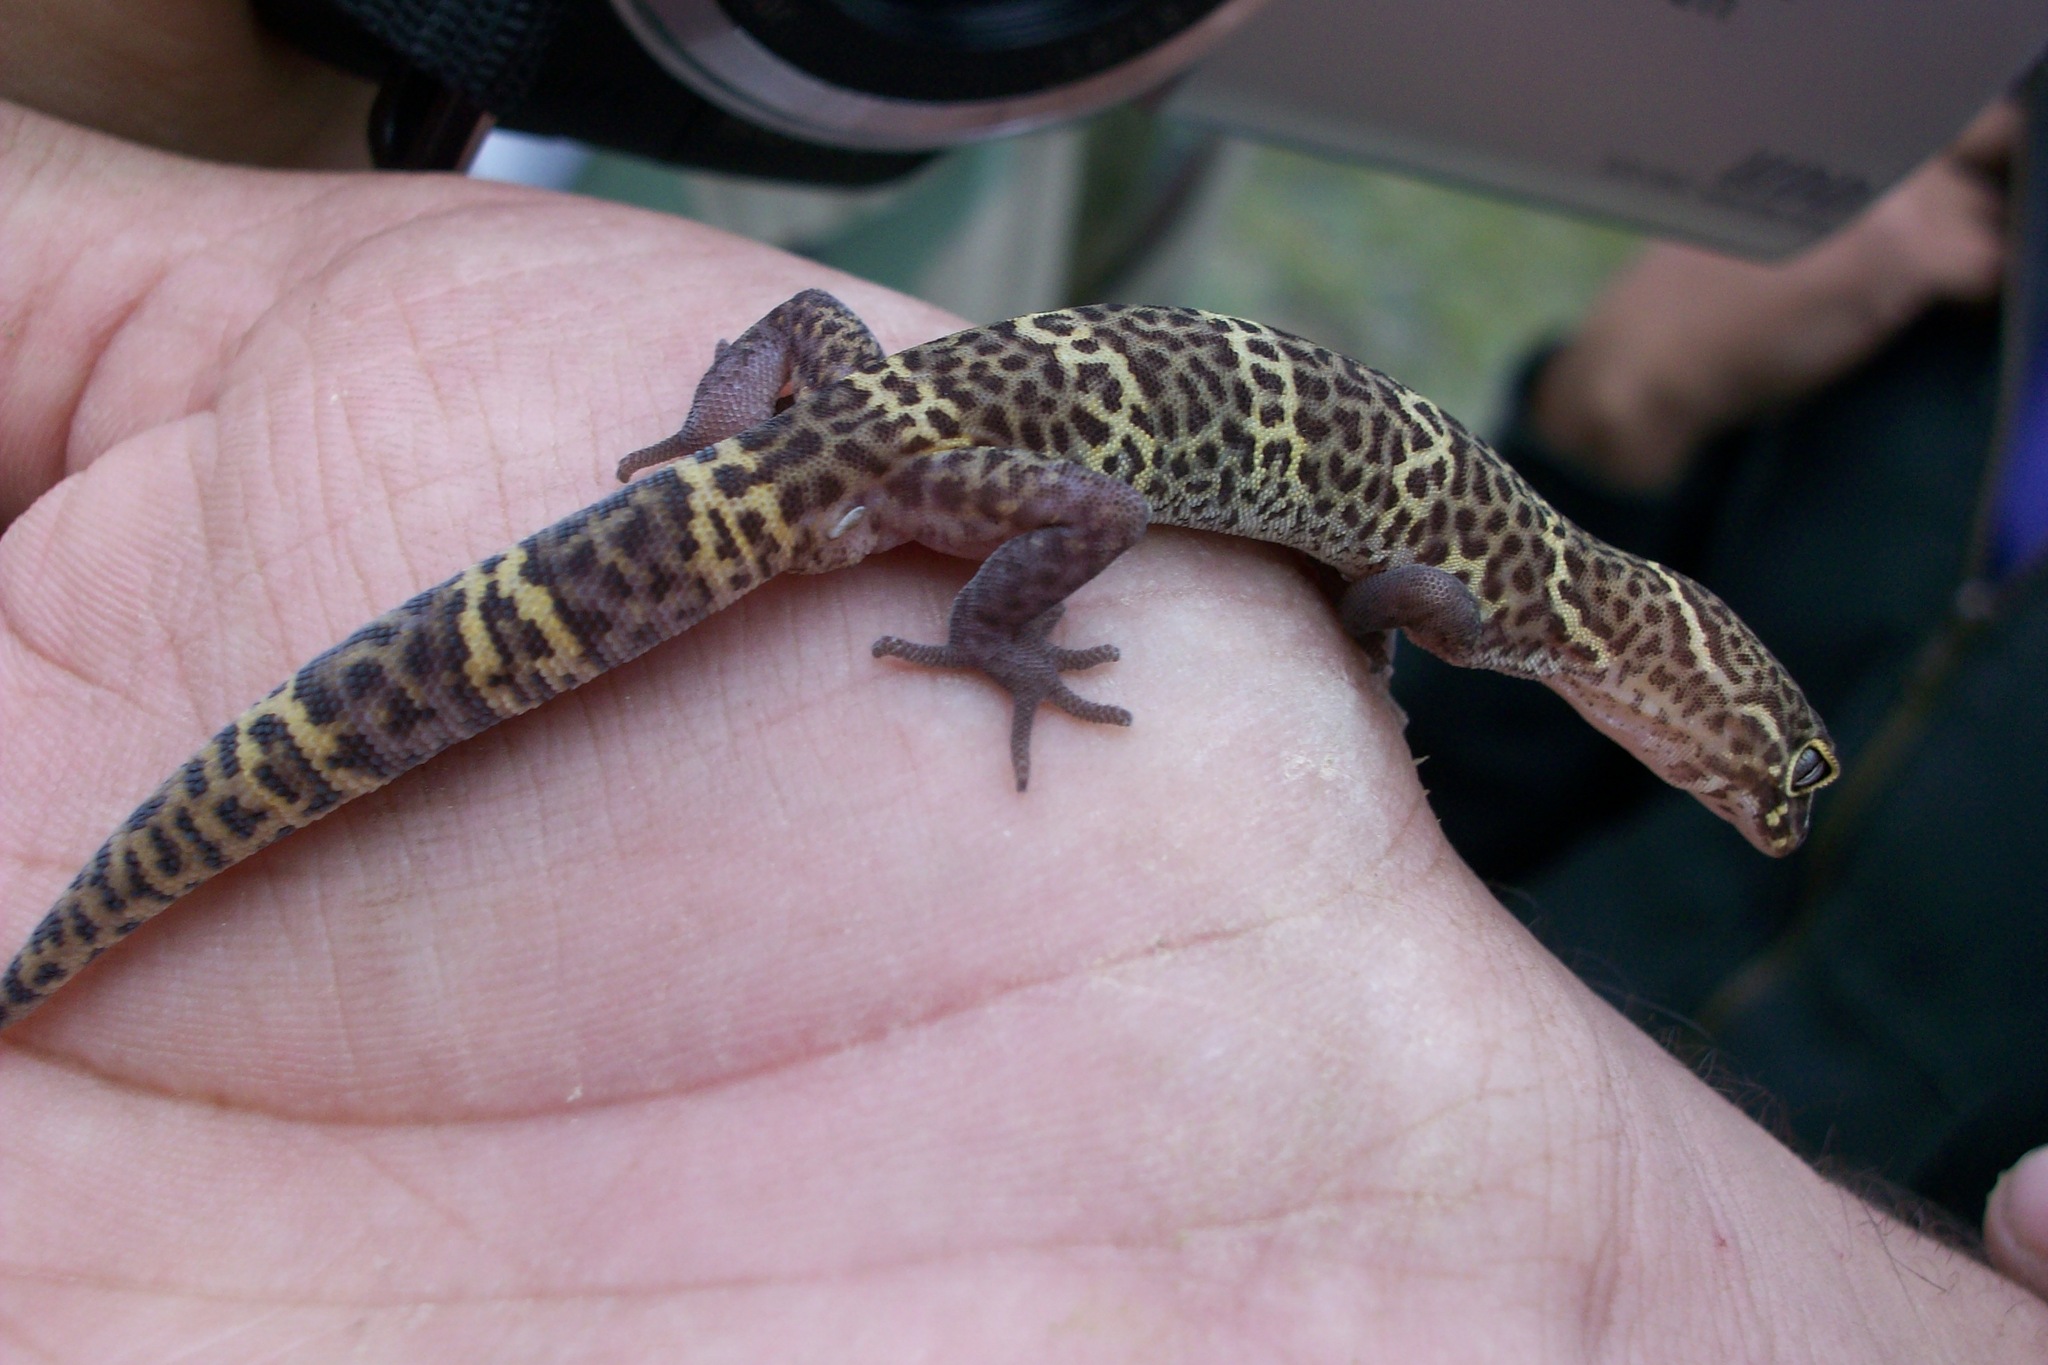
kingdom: Animalia
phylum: Chordata
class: Squamata
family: Eublepharidae
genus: Coleonyx
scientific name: Coleonyx brevis
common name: Texas banded gecko
